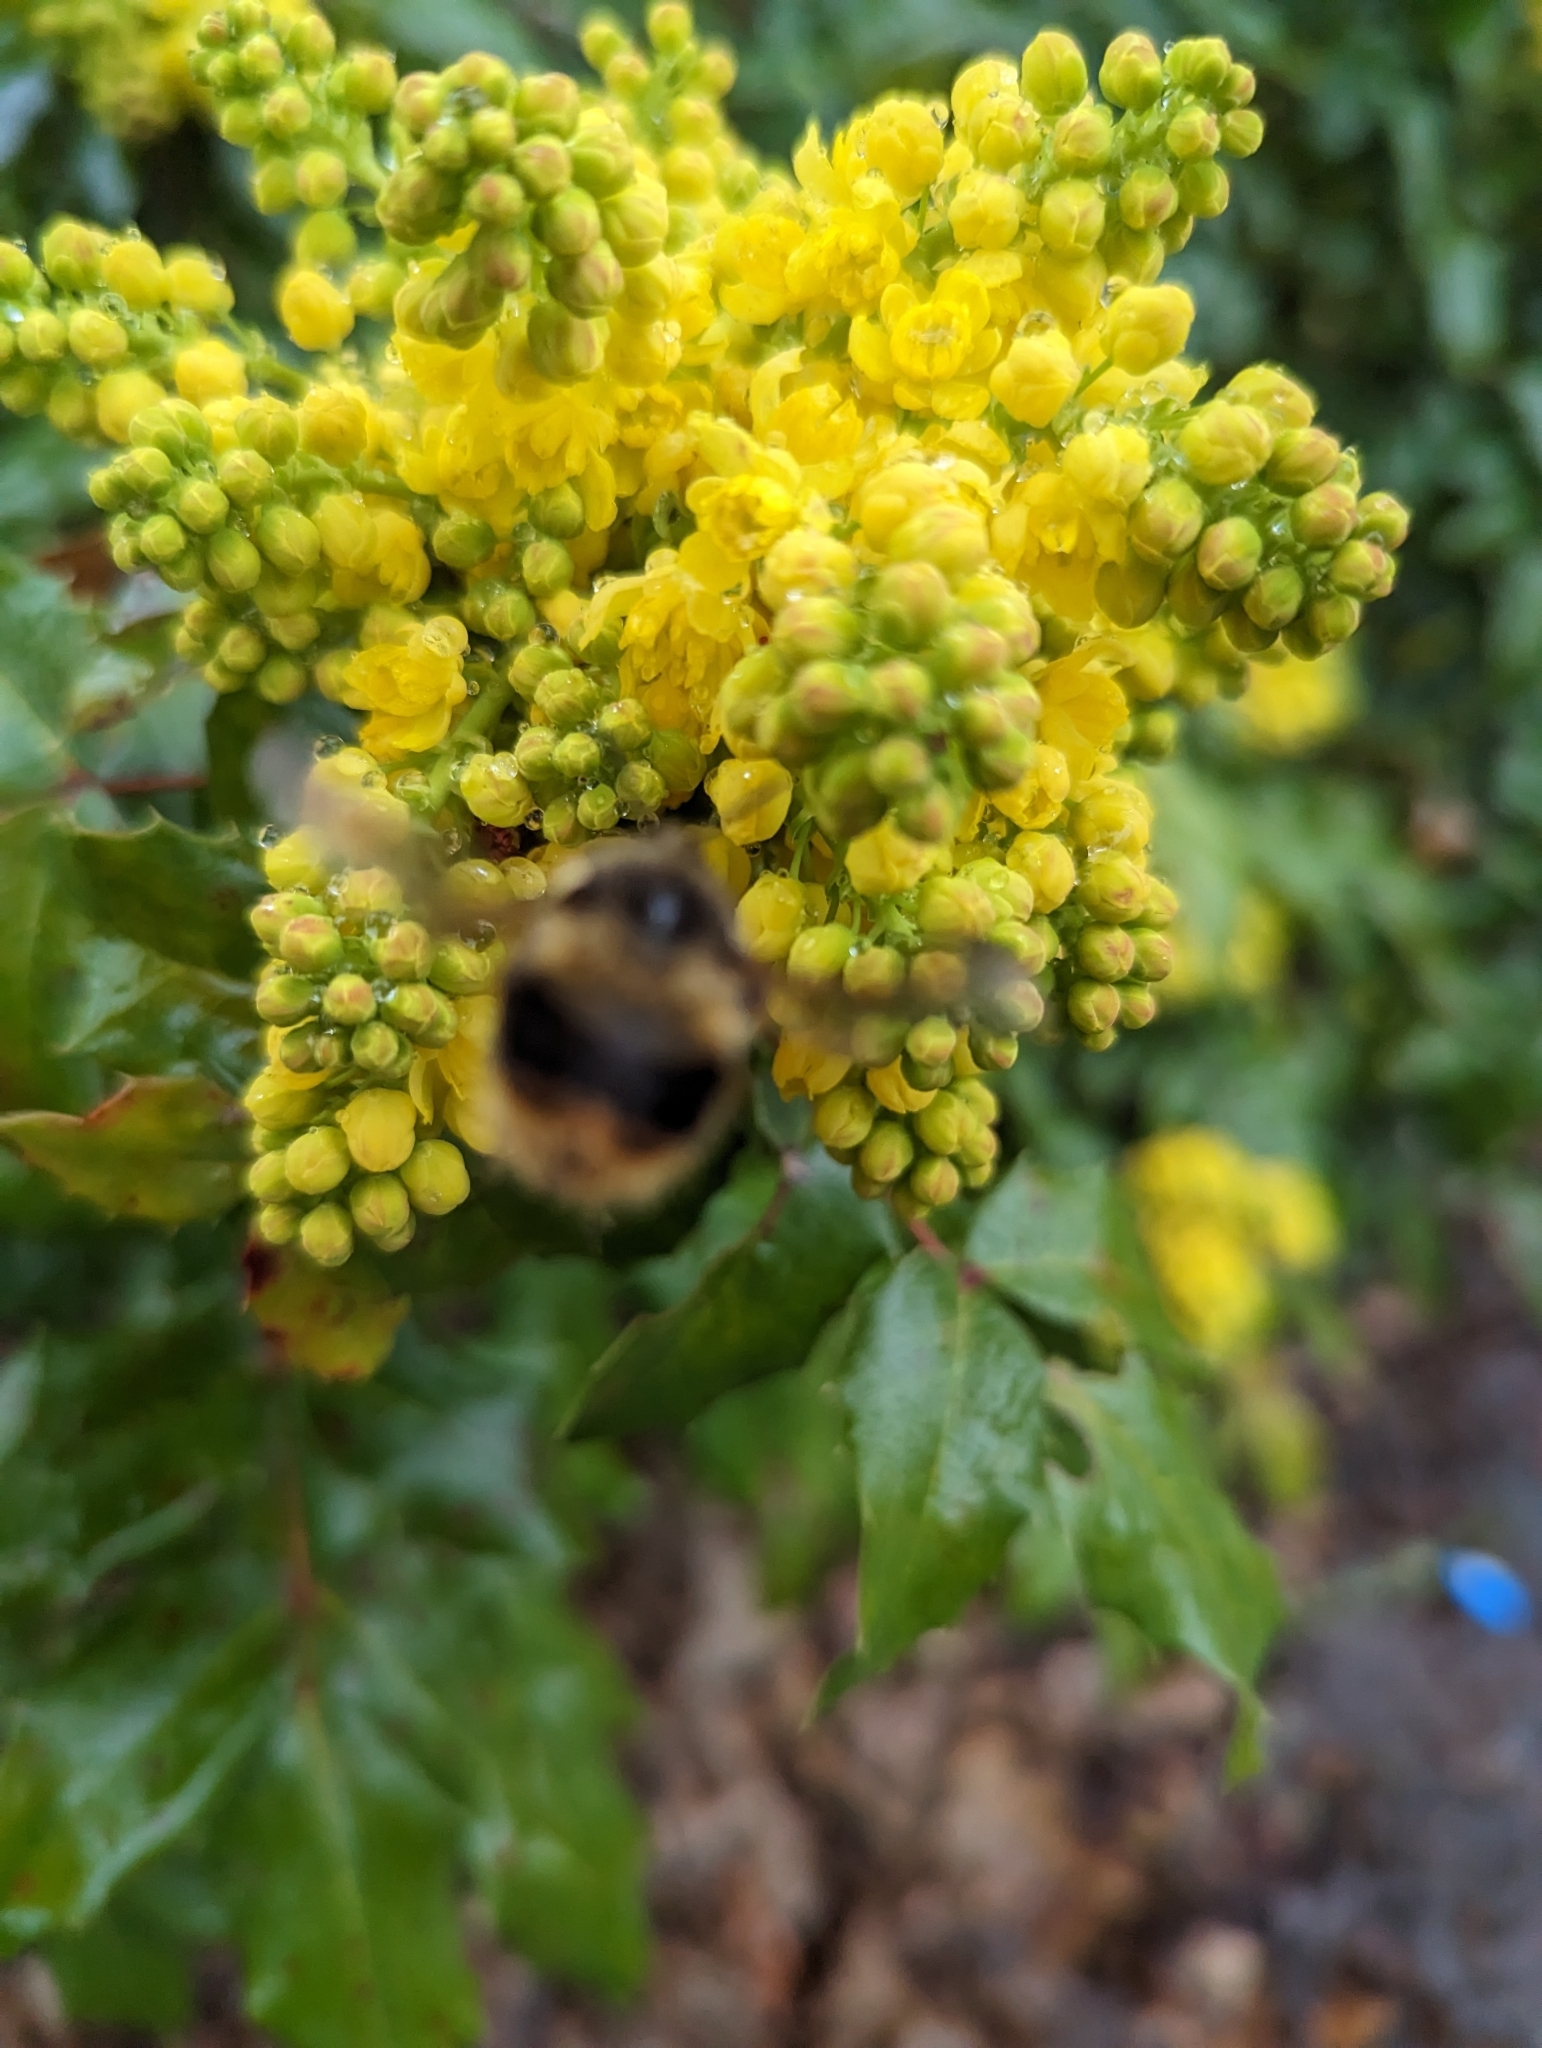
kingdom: Animalia
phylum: Arthropoda
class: Insecta
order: Hymenoptera
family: Apidae
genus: Bombus
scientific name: Bombus mixtus
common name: Fuzzy-horned bumble bee
